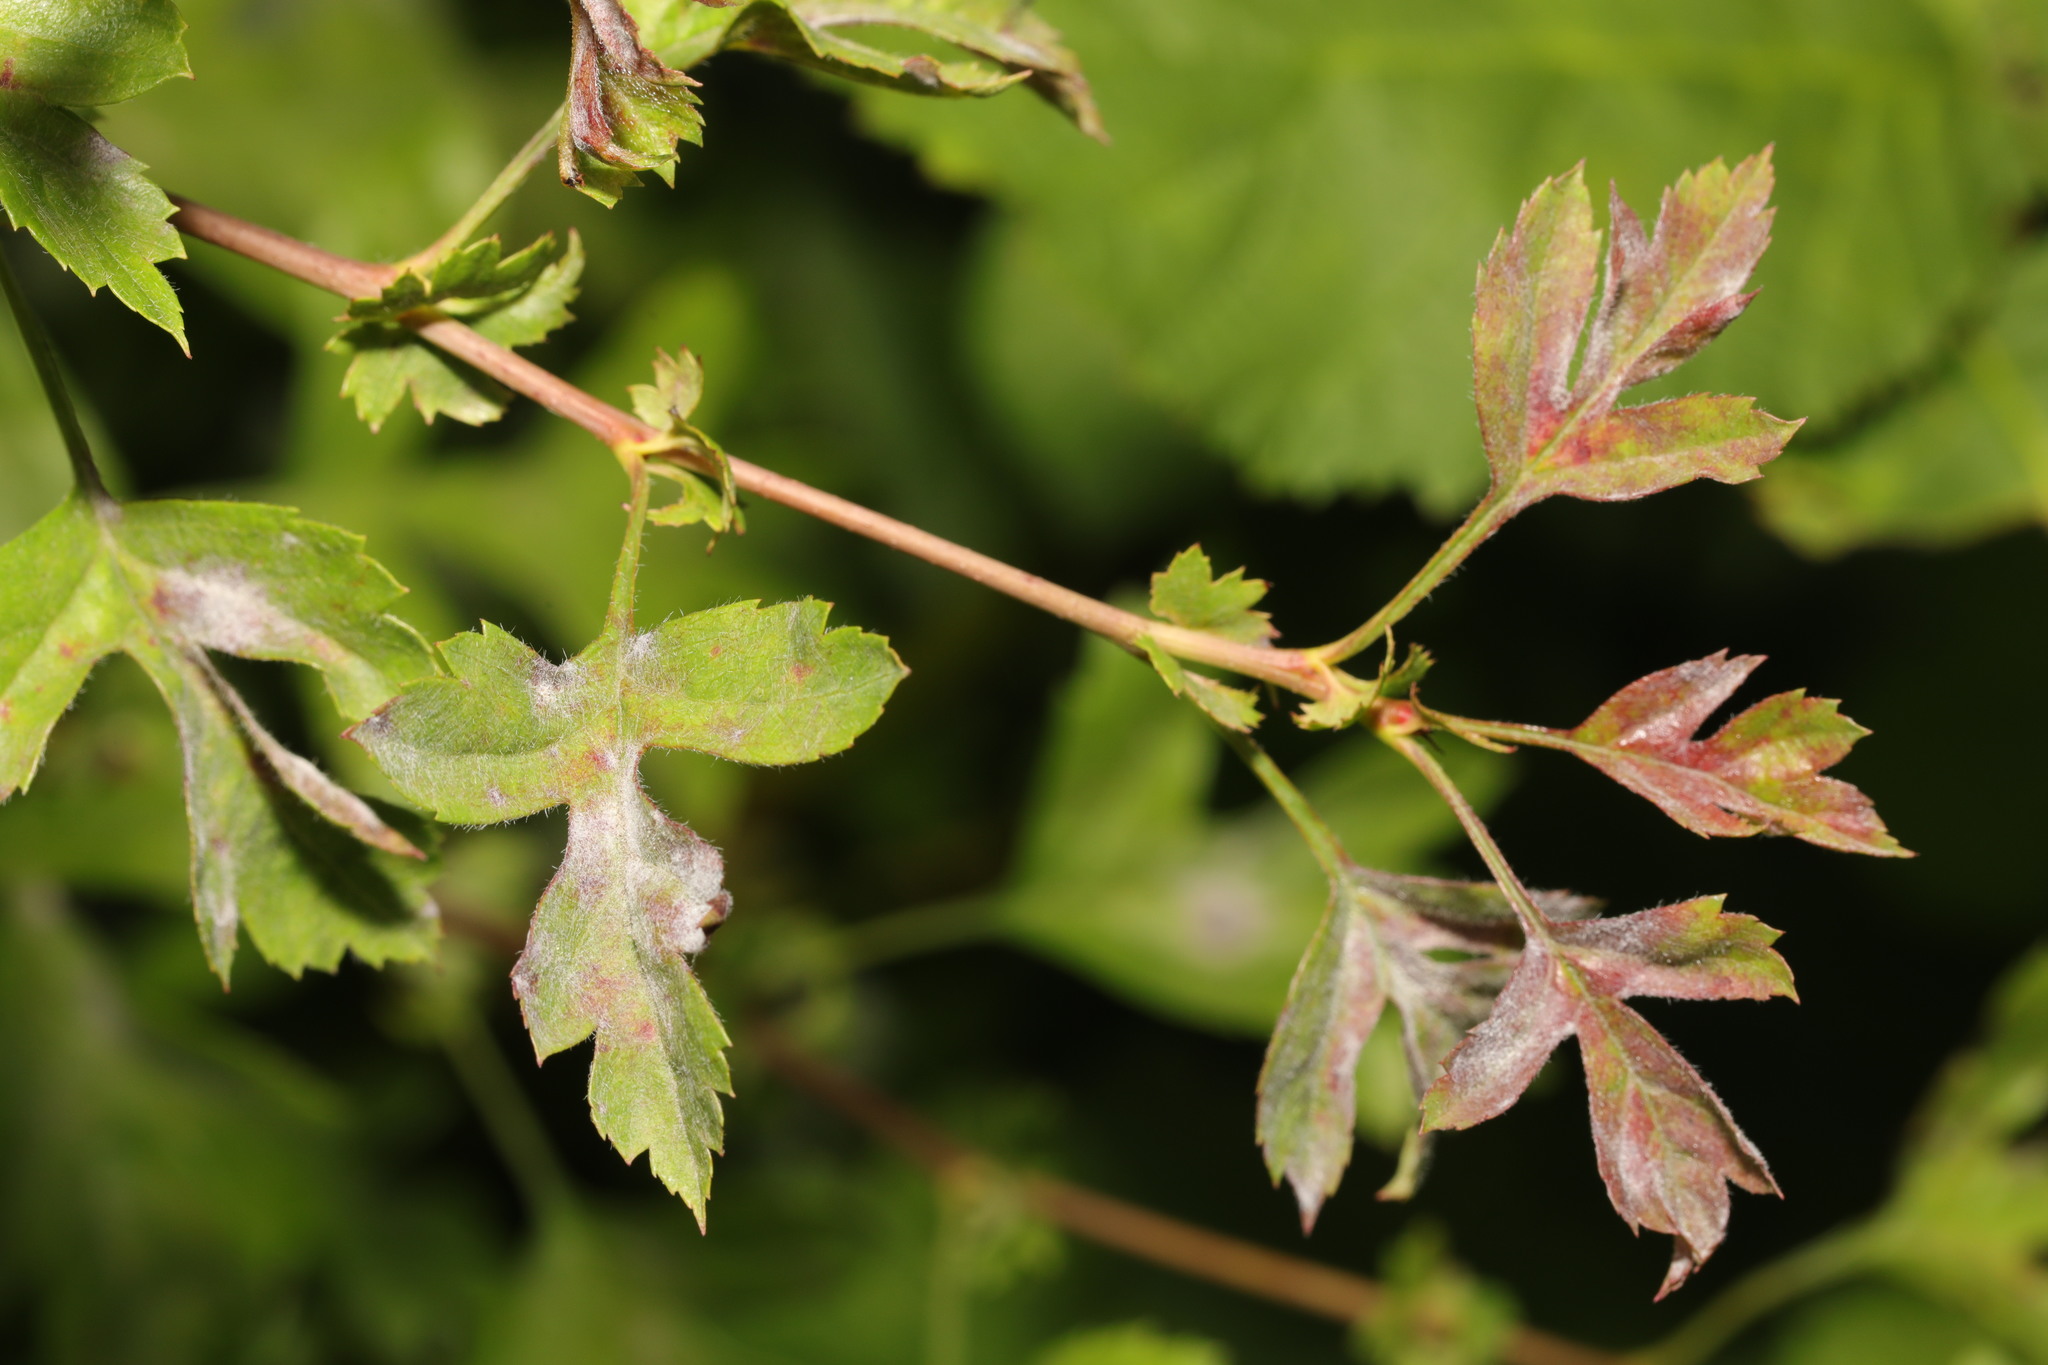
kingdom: Plantae
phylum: Tracheophyta
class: Magnoliopsida
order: Rosales
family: Rosaceae
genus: Crataegus
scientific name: Crataegus monogyna
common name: Hawthorn
